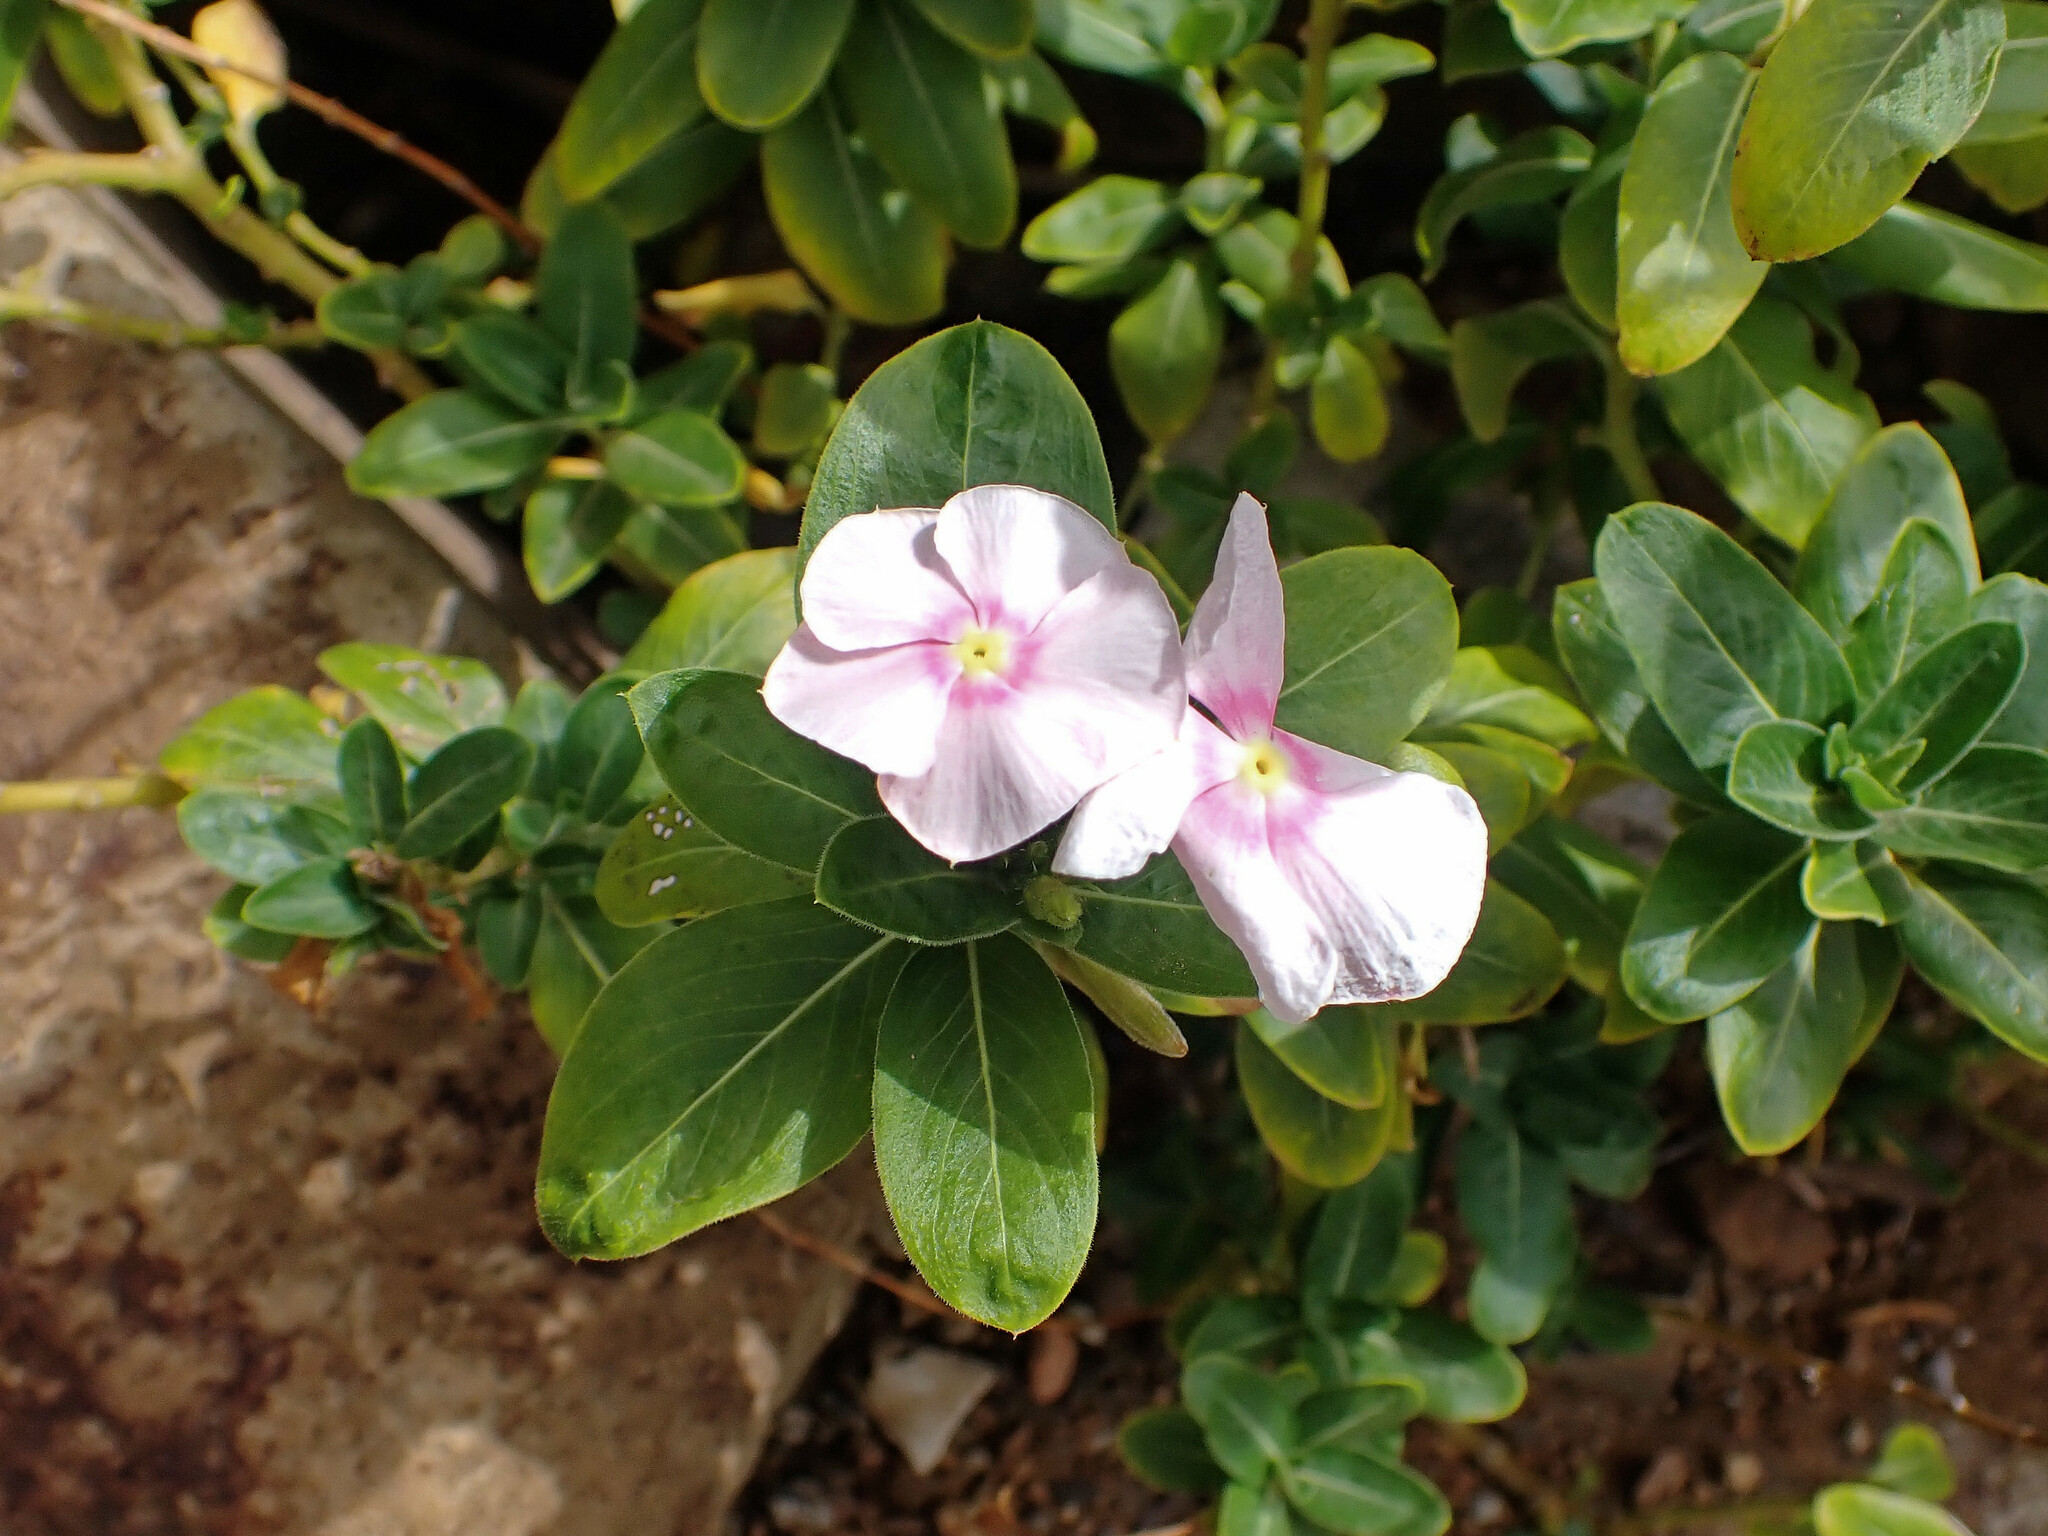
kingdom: Plantae
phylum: Tracheophyta
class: Magnoliopsida
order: Gentianales
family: Apocynaceae
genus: Catharanthus
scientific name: Catharanthus roseus
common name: Madagascar periwinkle
